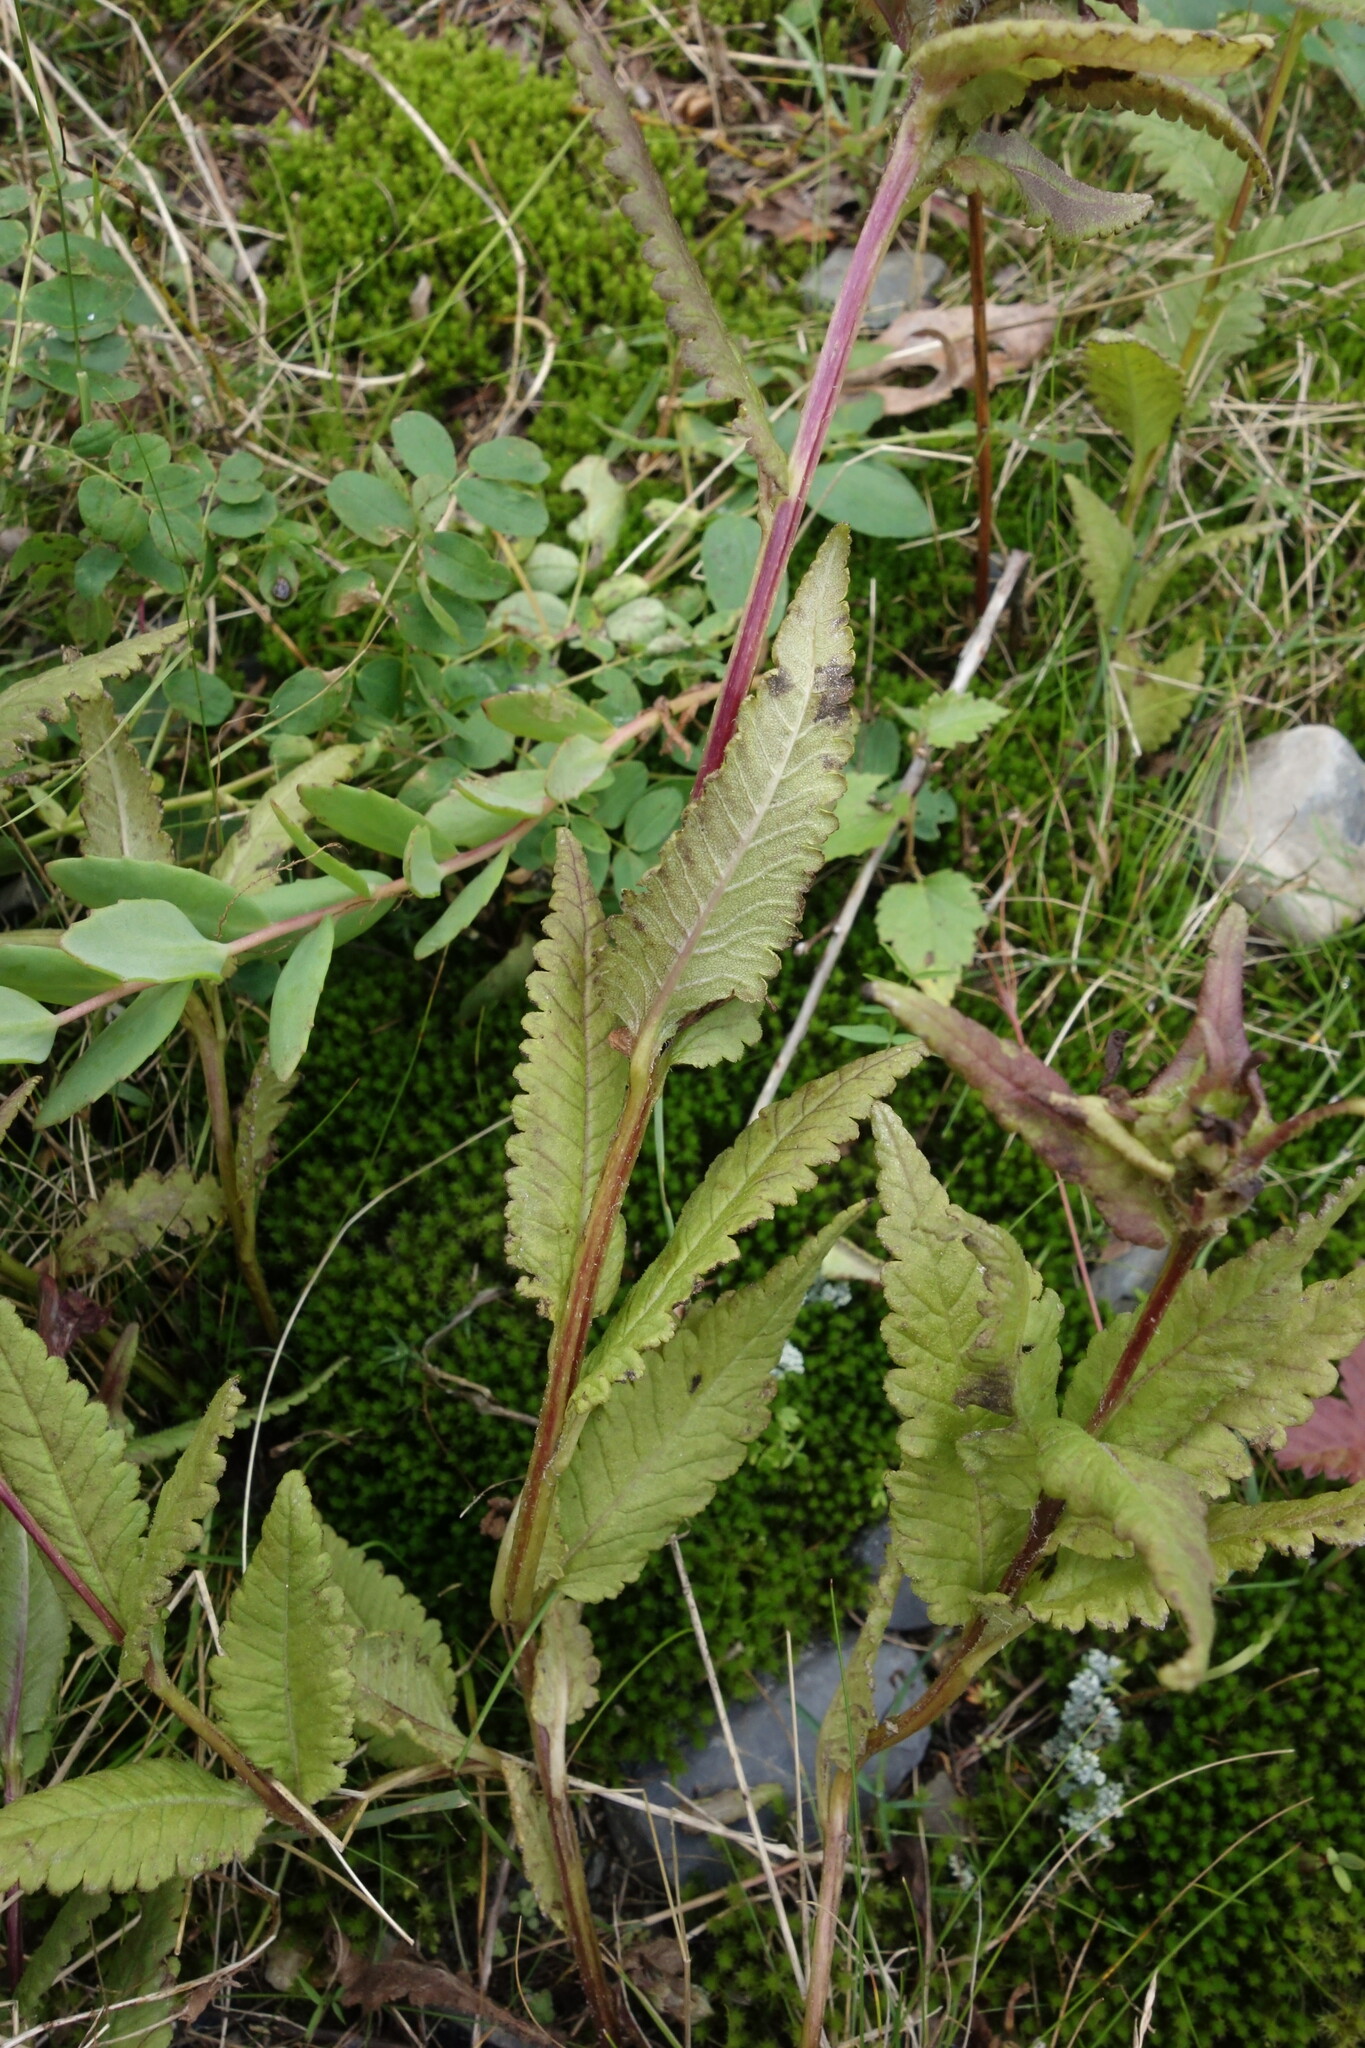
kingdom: Plantae
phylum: Tracheophyta
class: Magnoliopsida
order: Lamiales
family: Orobanchaceae
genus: Pedicularis
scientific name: Pedicularis resupinata
